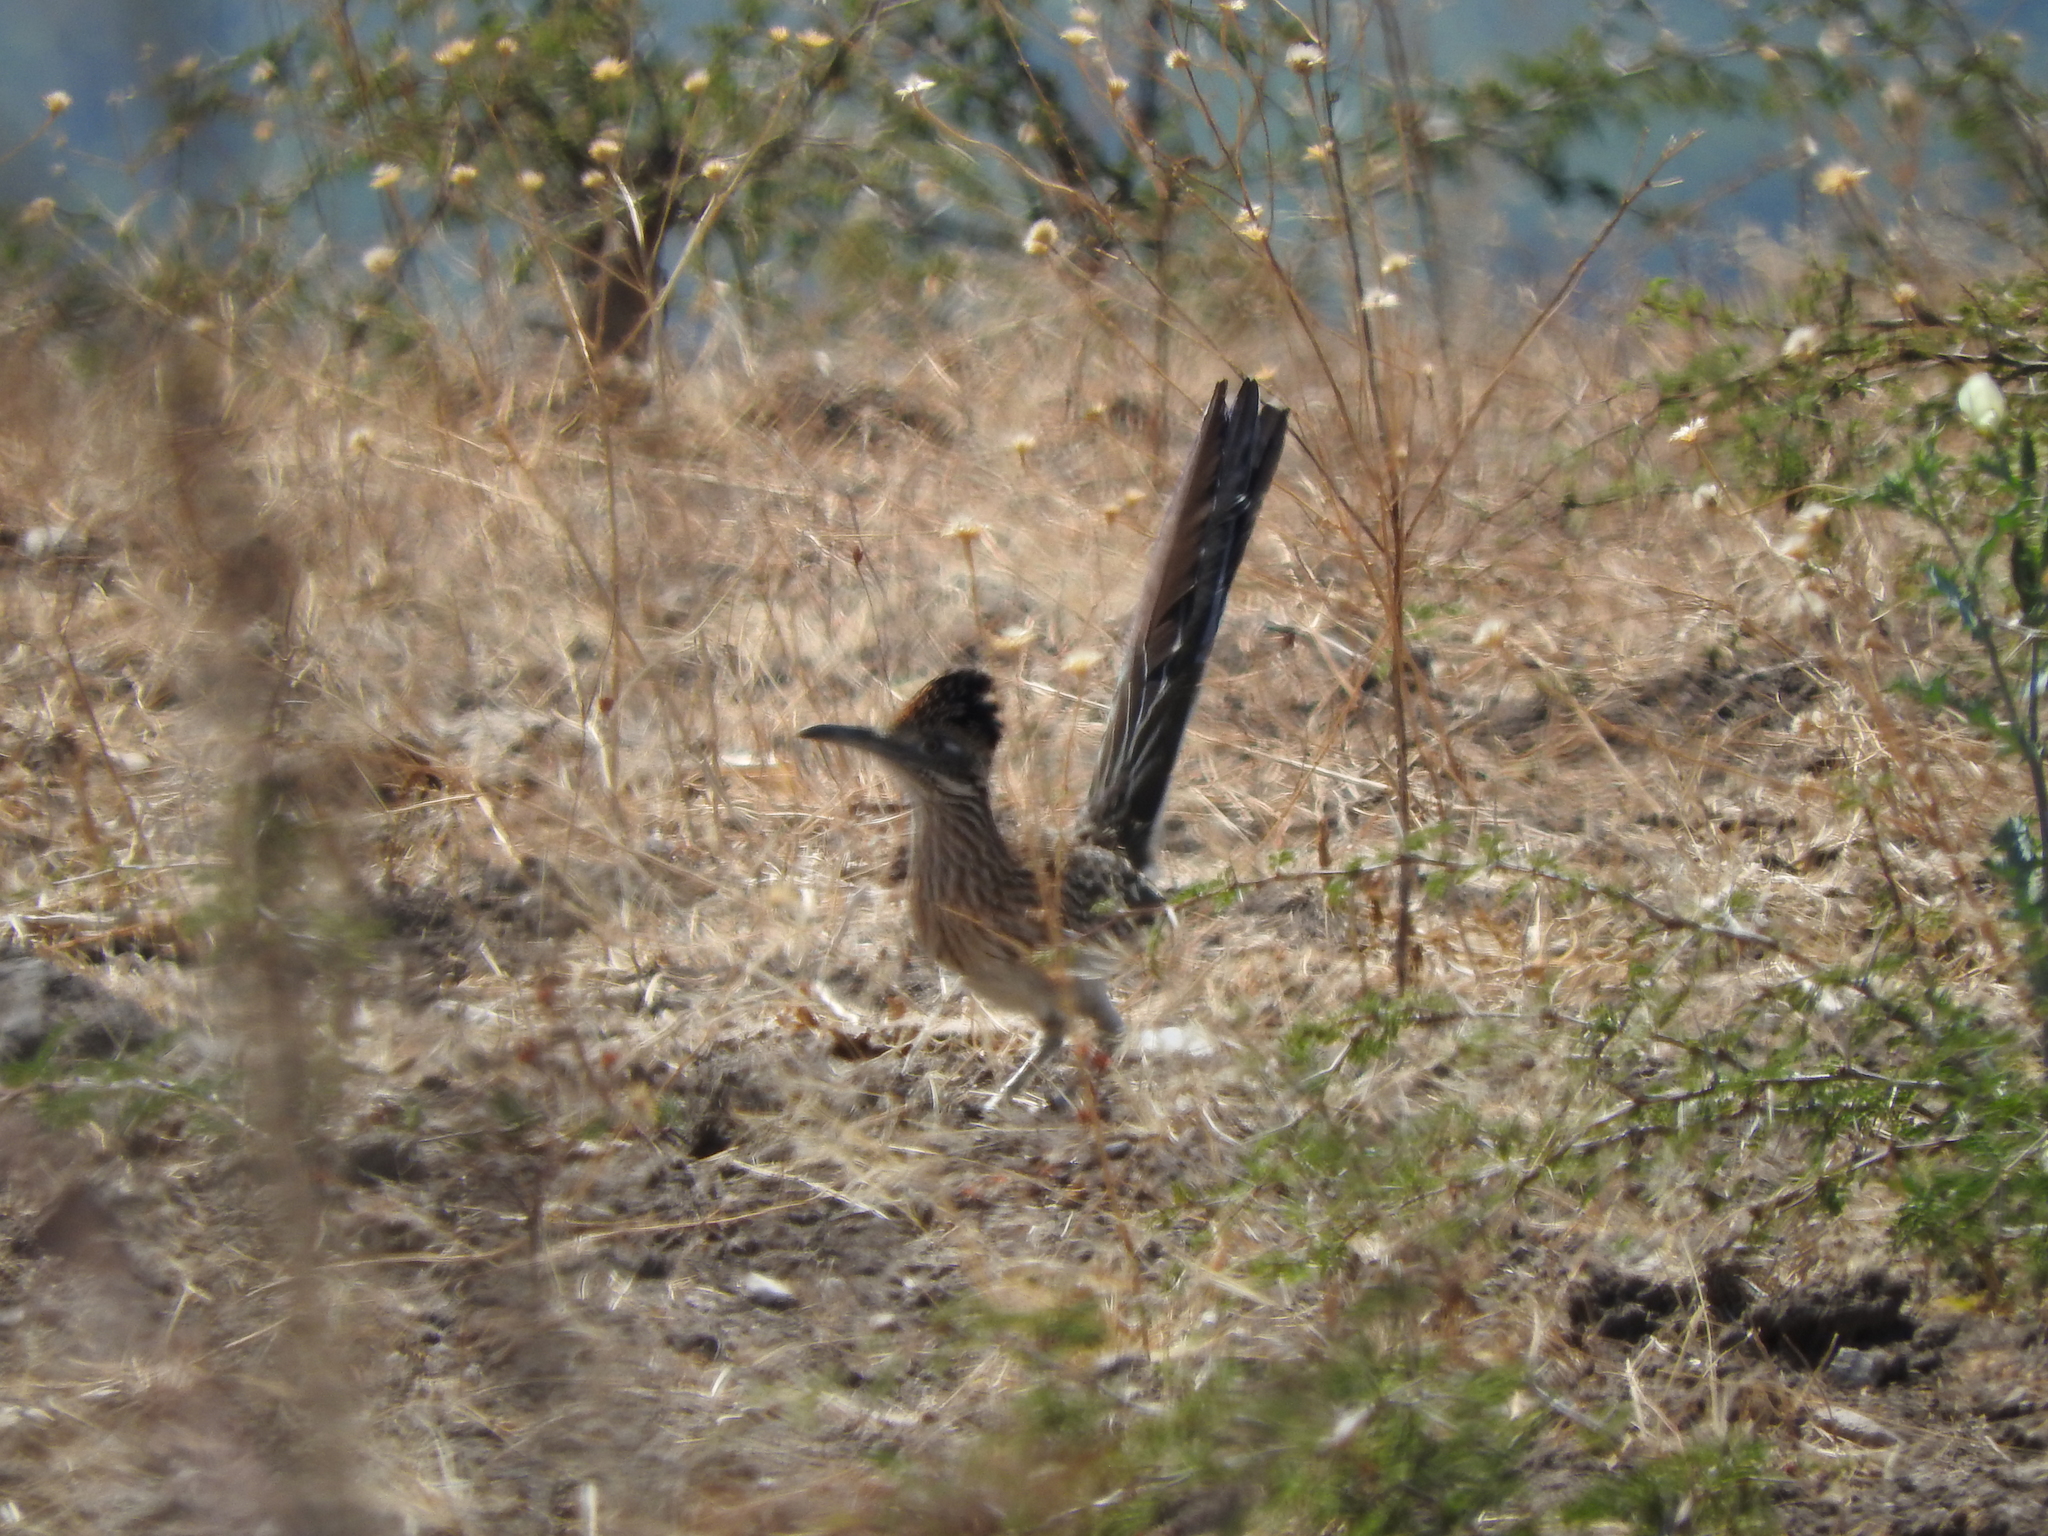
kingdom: Animalia
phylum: Chordata
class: Aves
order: Cuculiformes
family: Cuculidae
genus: Geococcyx
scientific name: Geococcyx californianus
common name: Greater roadrunner
